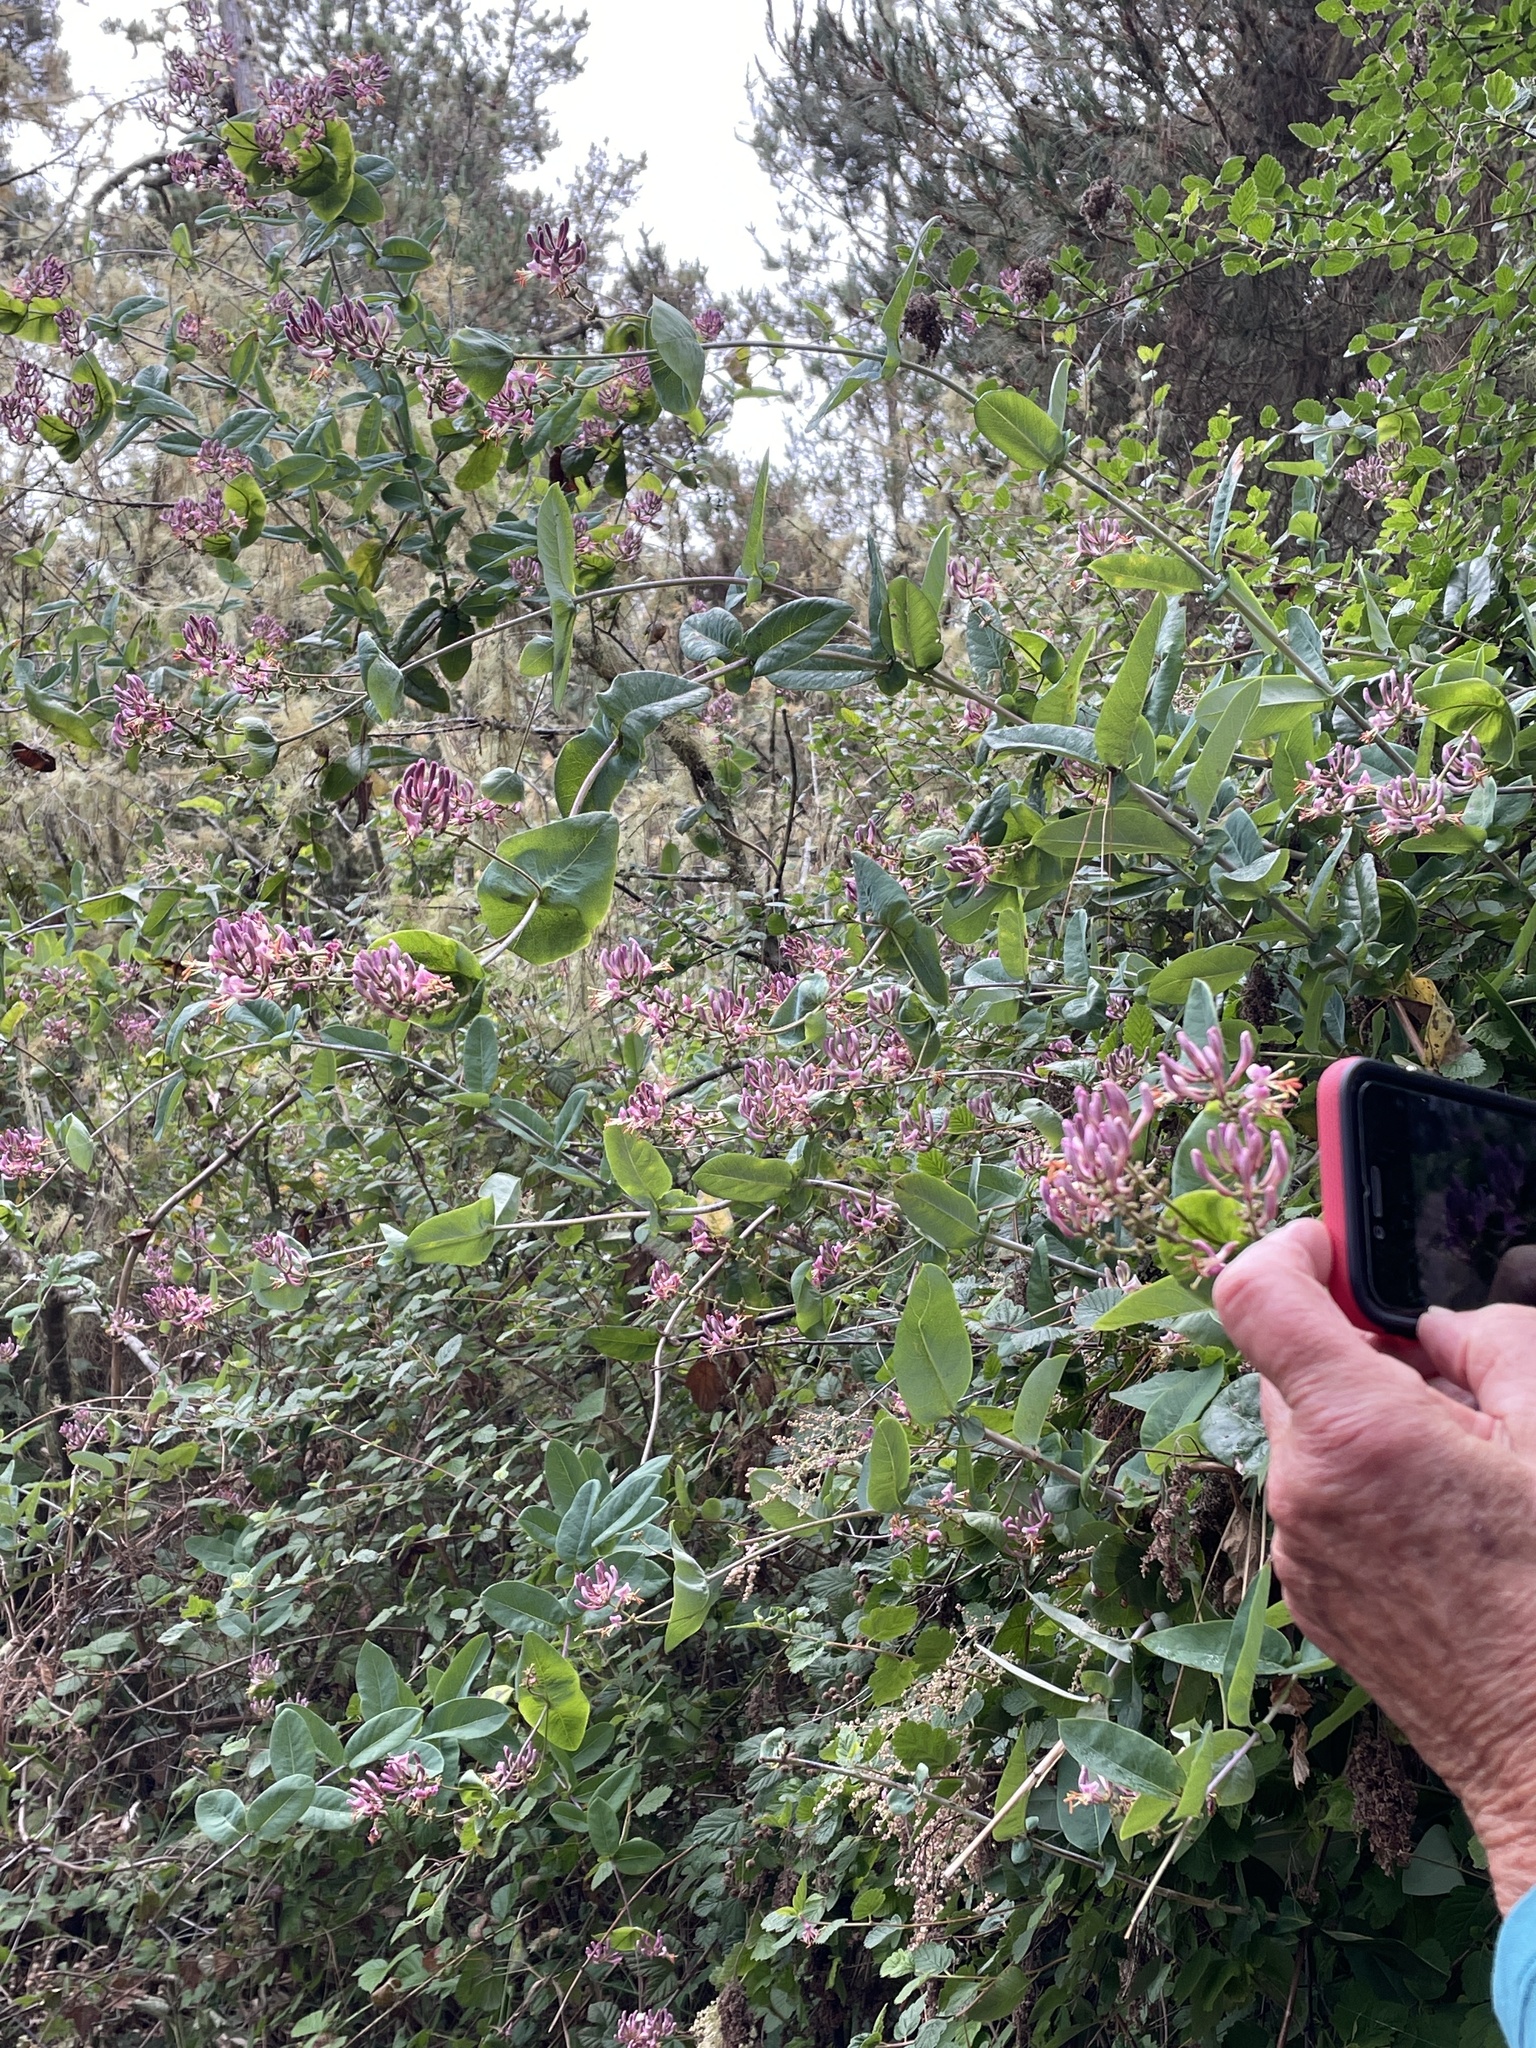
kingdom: Plantae
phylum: Tracheophyta
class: Magnoliopsida
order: Dipsacales
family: Caprifoliaceae
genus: Lonicera
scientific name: Lonicera hispidula
